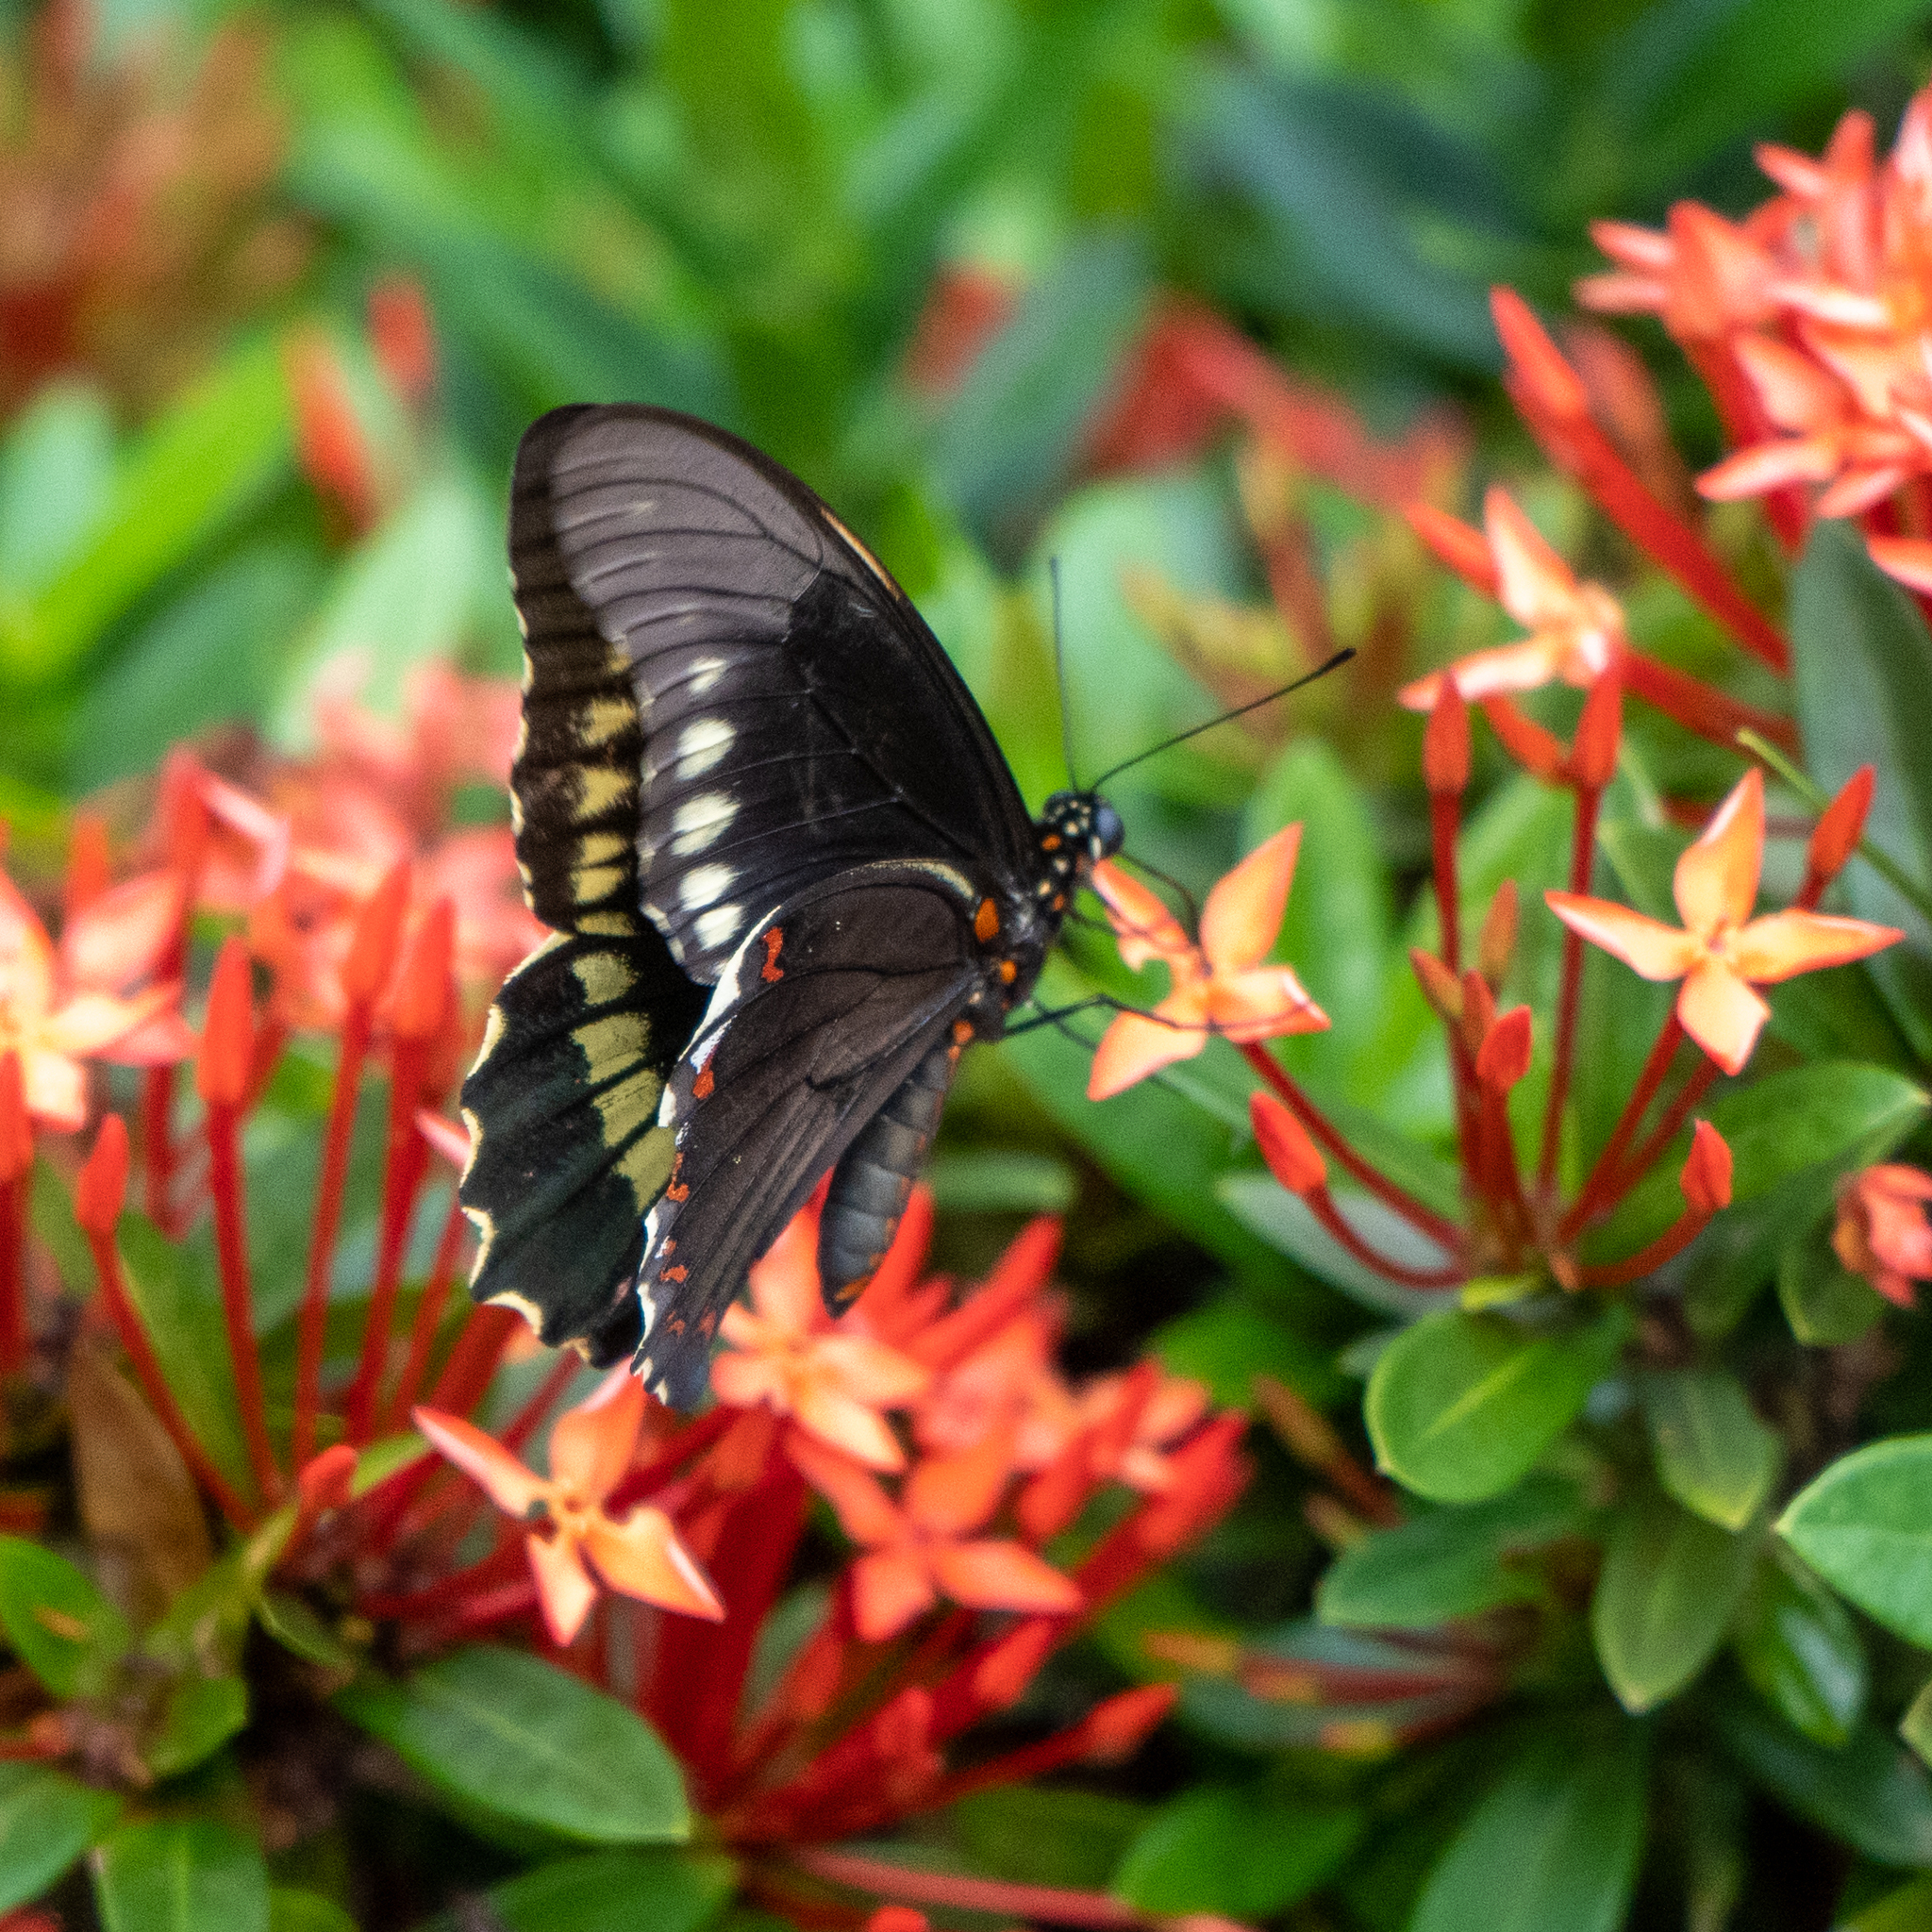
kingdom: Animalia
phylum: Arthropoda
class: Insecta
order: Lepidoptera
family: Papilionidae
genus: Battus
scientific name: Battus polydamas
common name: Polydamas swallowtail
